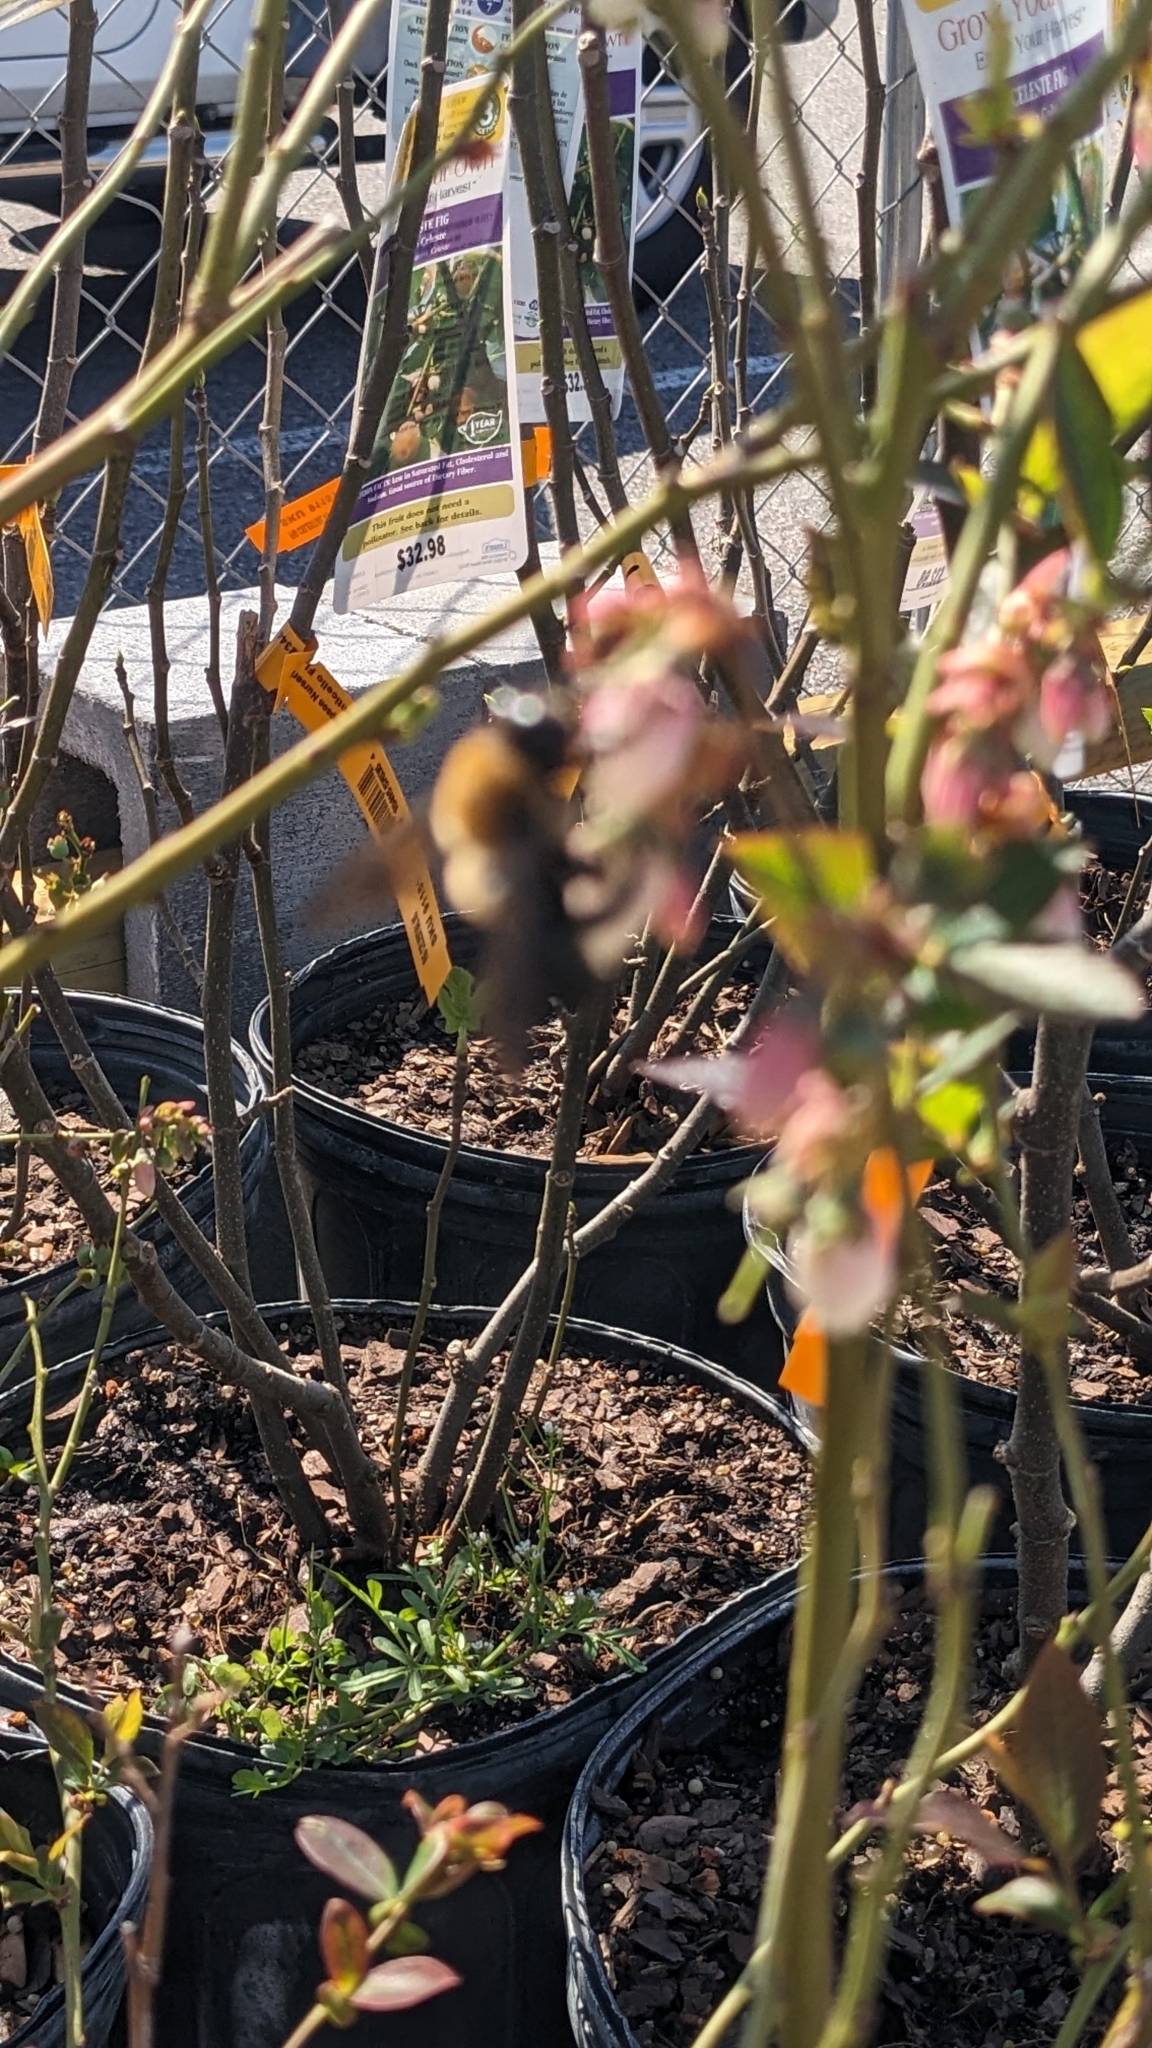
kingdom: Animalia
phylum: Arthropoda
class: Insecta
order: Hymenoptera
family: Apidae
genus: Xylocopa
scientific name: Xylocopa virginica
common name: Carpenter bee
